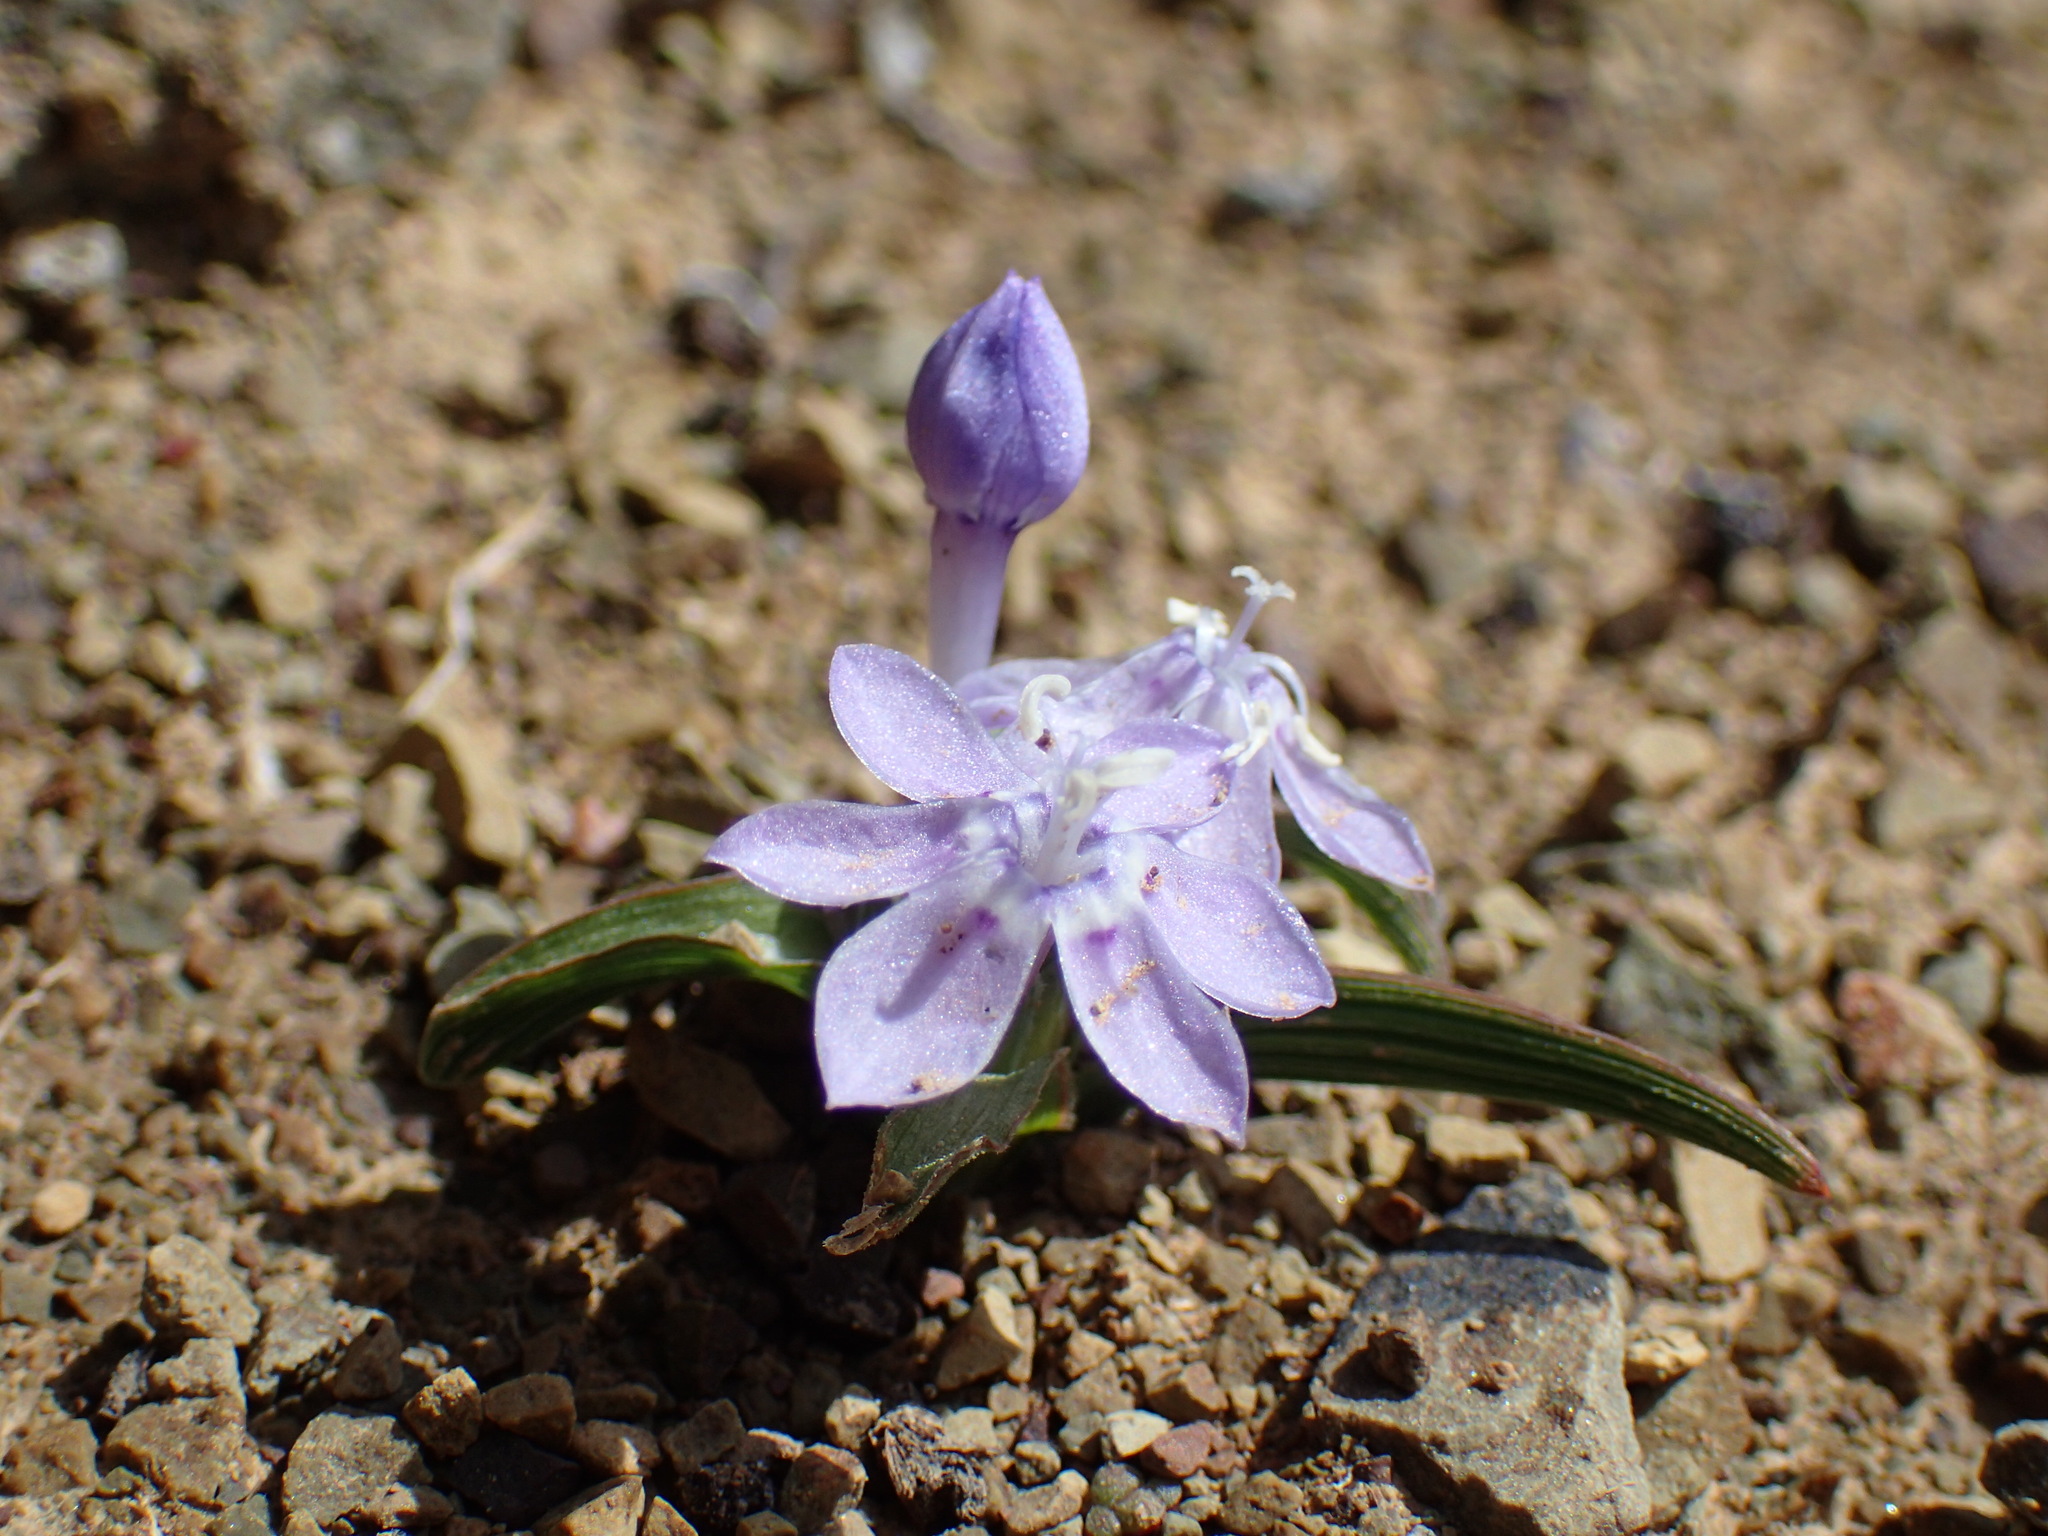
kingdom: Plantae
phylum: Tracheophyta
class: Liliopsida
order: Asparagales
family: Iridaceae
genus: Lapeirousia
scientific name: Lapeirousia plicata
